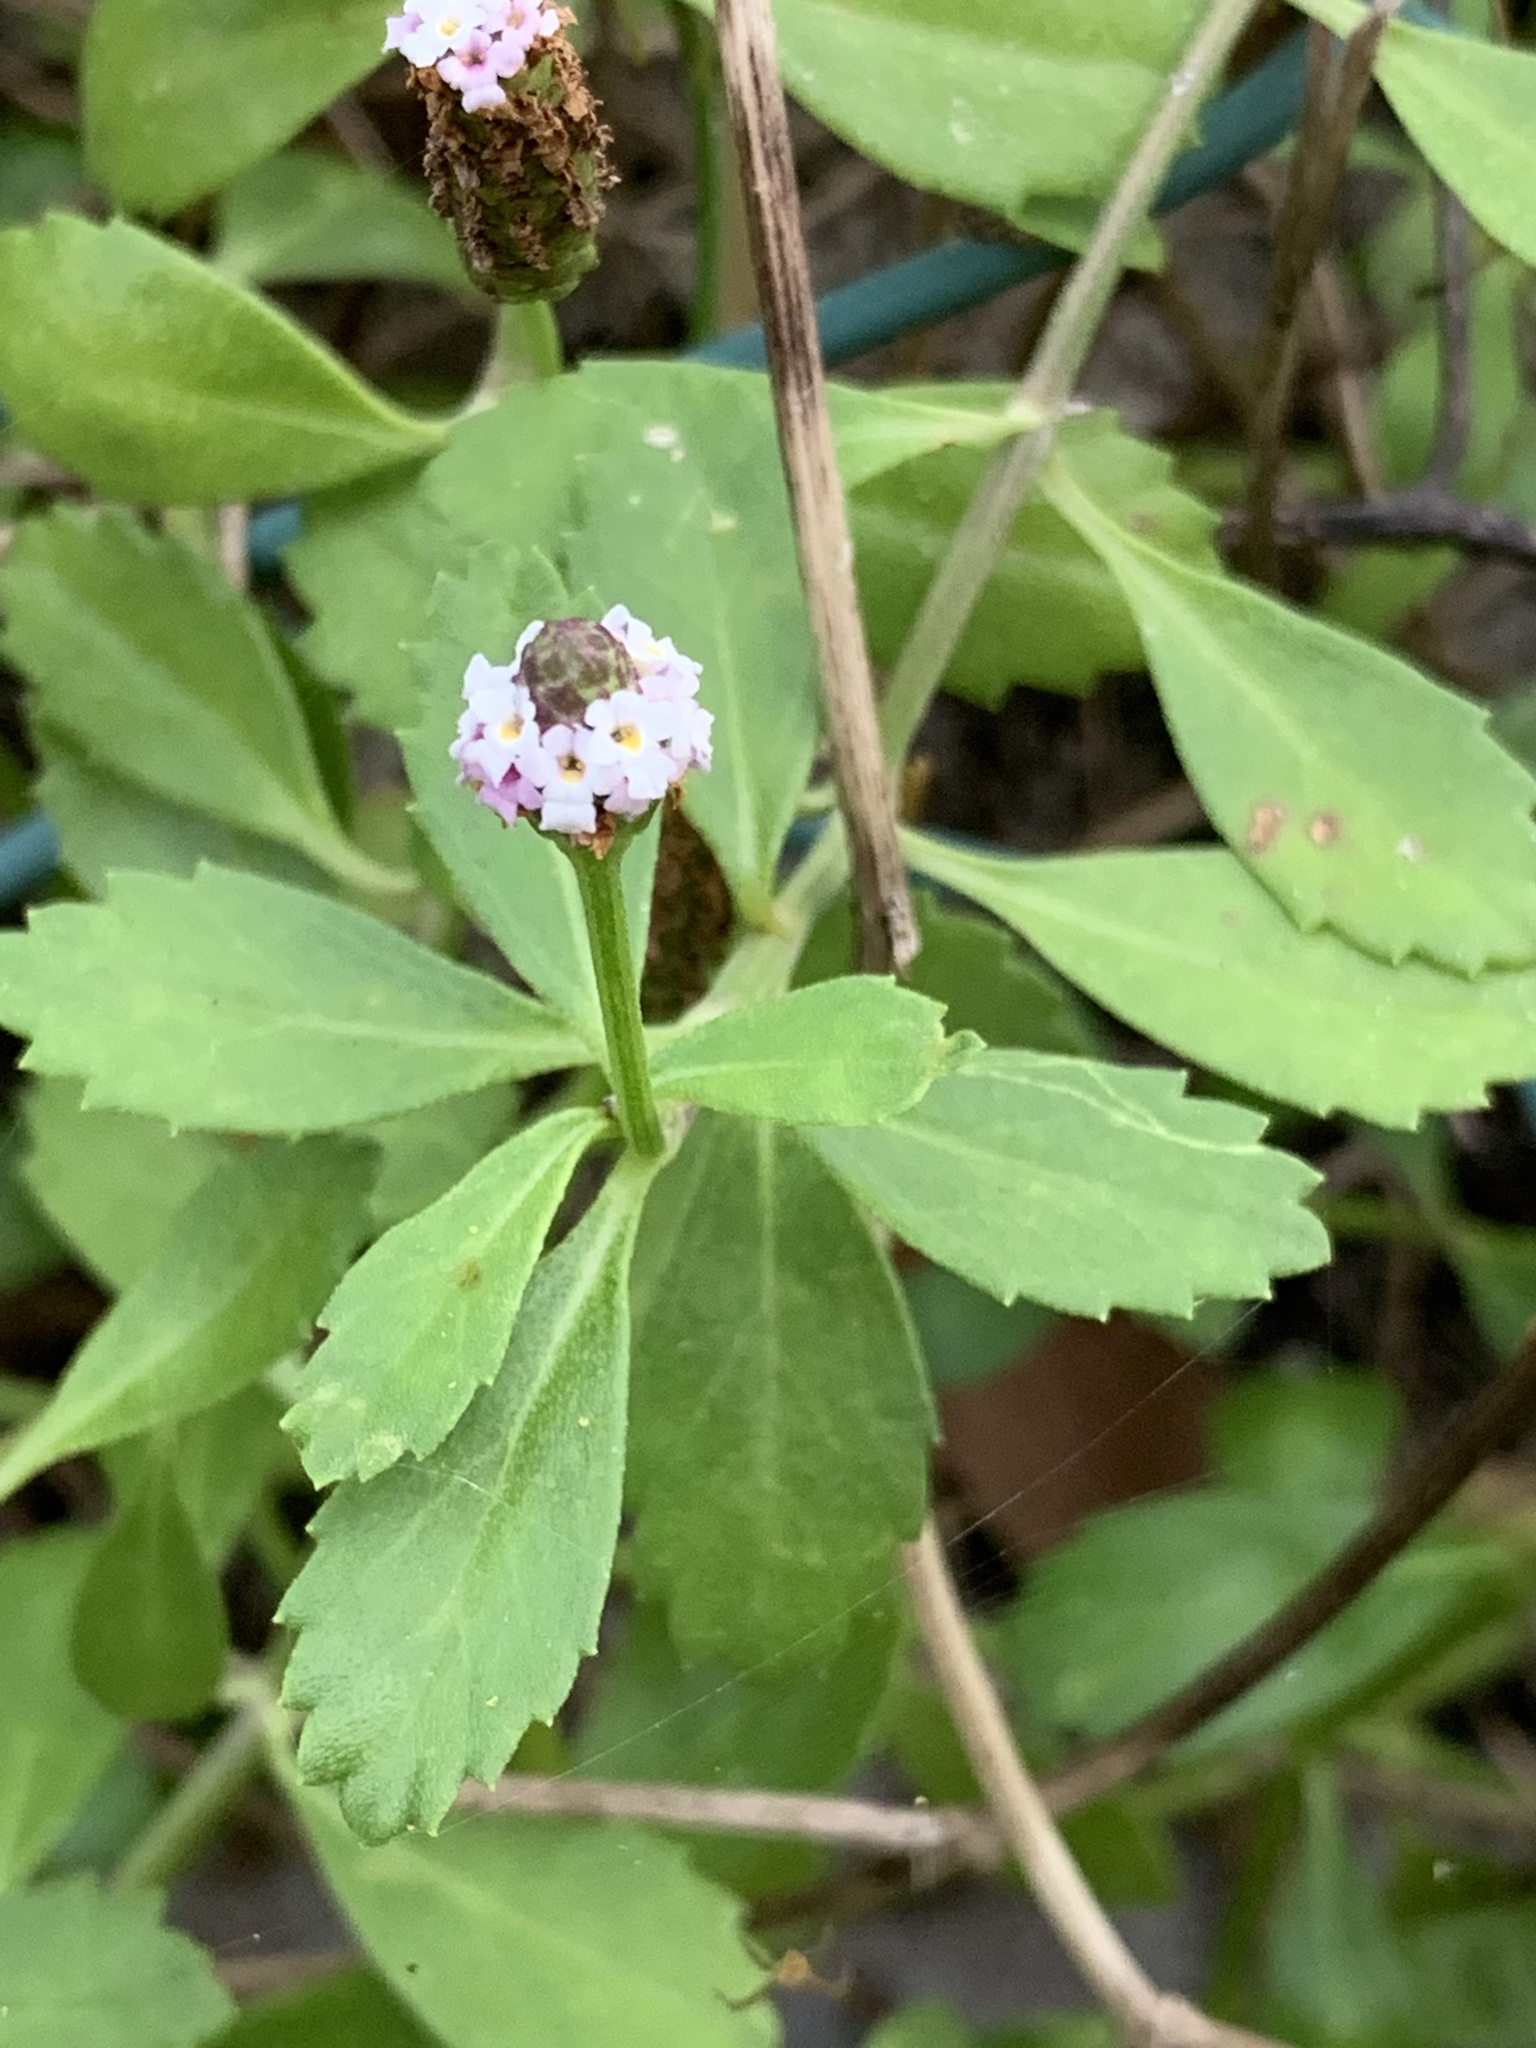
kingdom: Plantae
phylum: Tracheophyta
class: Magnoliopsida
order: Lamiales
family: Verbenaceae
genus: Phyla
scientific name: Phyla nodiflora
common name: Frogfruit
